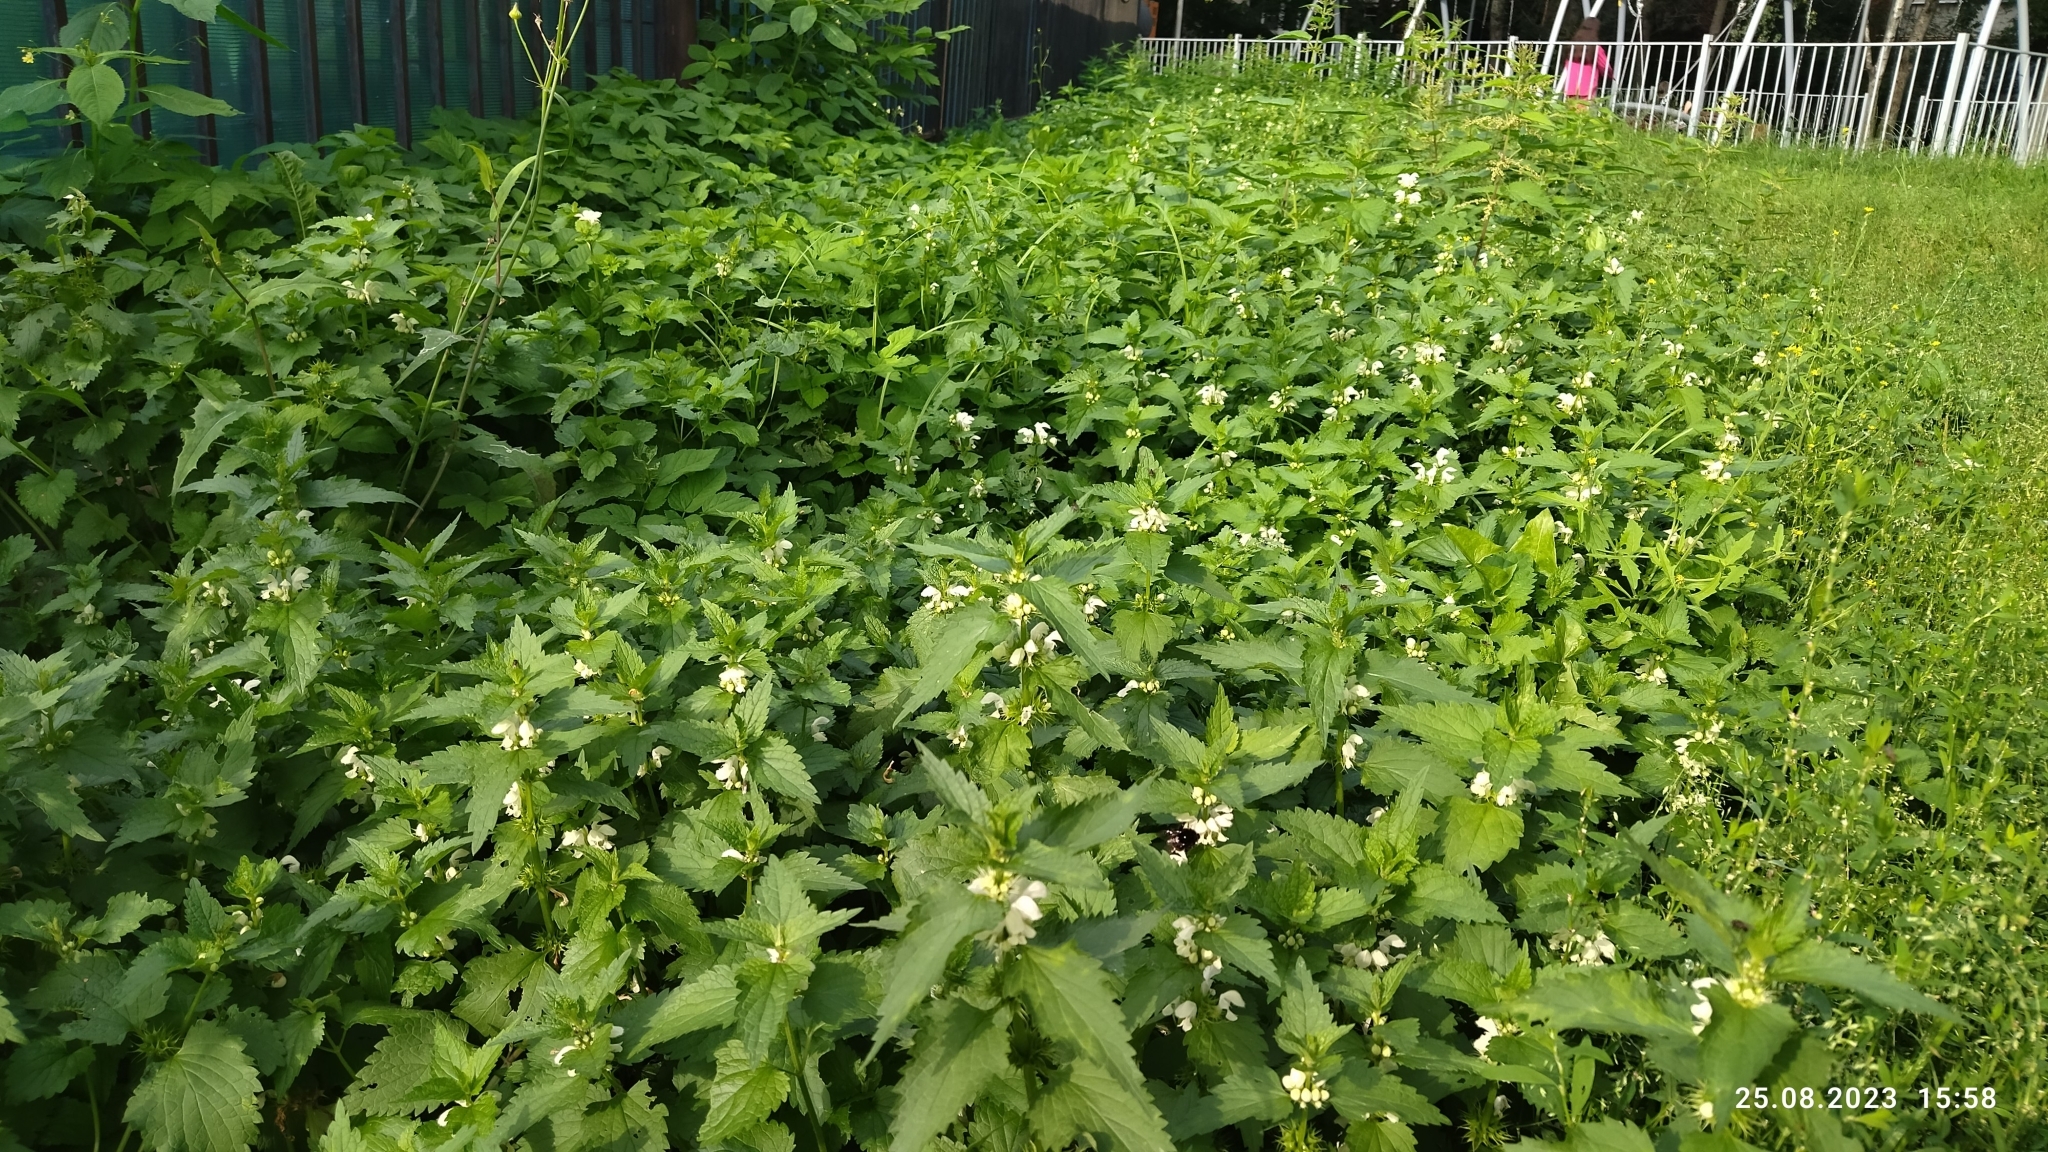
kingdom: Plantae
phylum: Tracheophyta
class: Magnoliopsida
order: Lamiales
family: Lamiaceae
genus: Lamium
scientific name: Lamium album
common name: White dead-nettle
